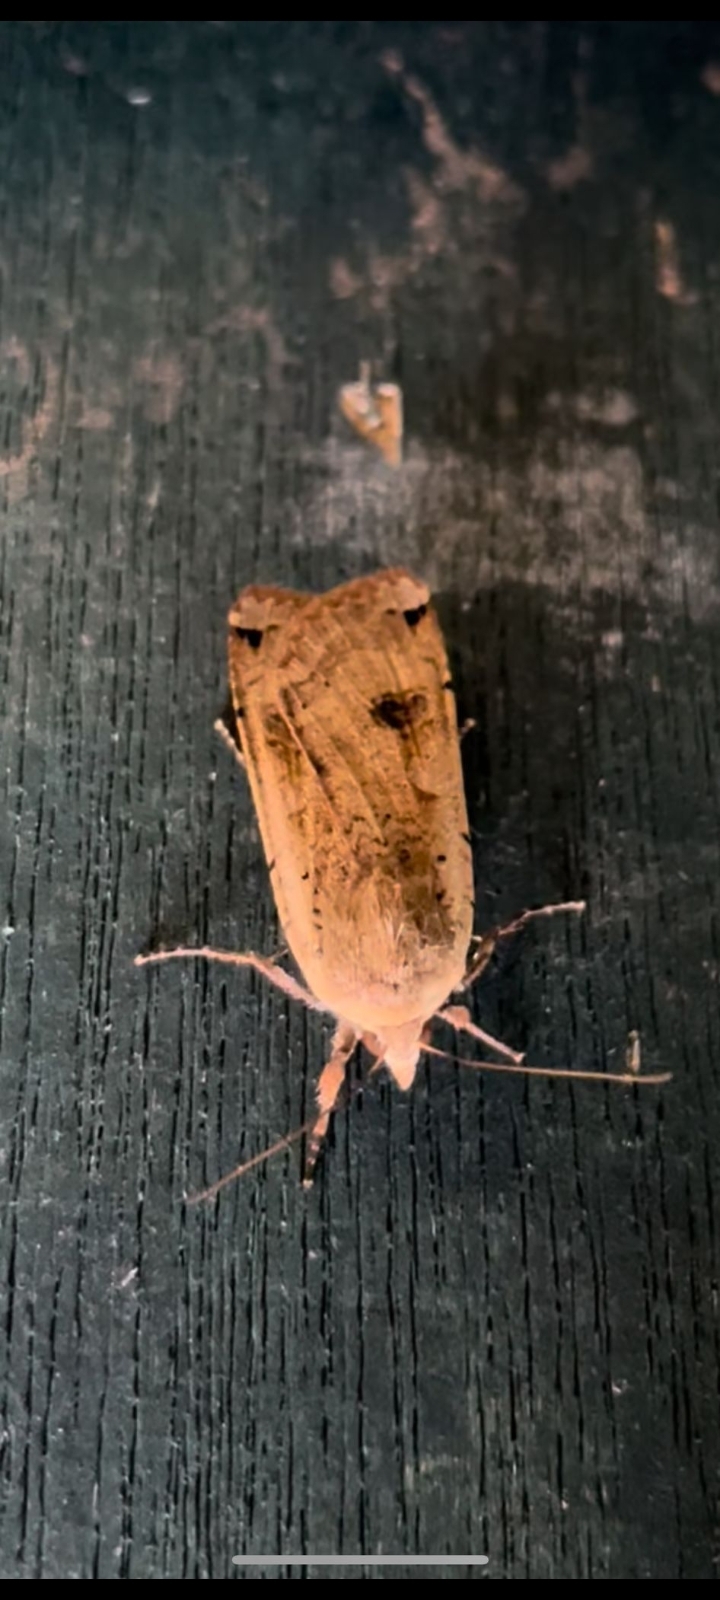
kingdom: Animalia
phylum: Arthropoda
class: Insecta
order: Lepidoptera
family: Noctuidae
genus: Noctua
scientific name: Noctua pronuba
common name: Large yellow underwing
